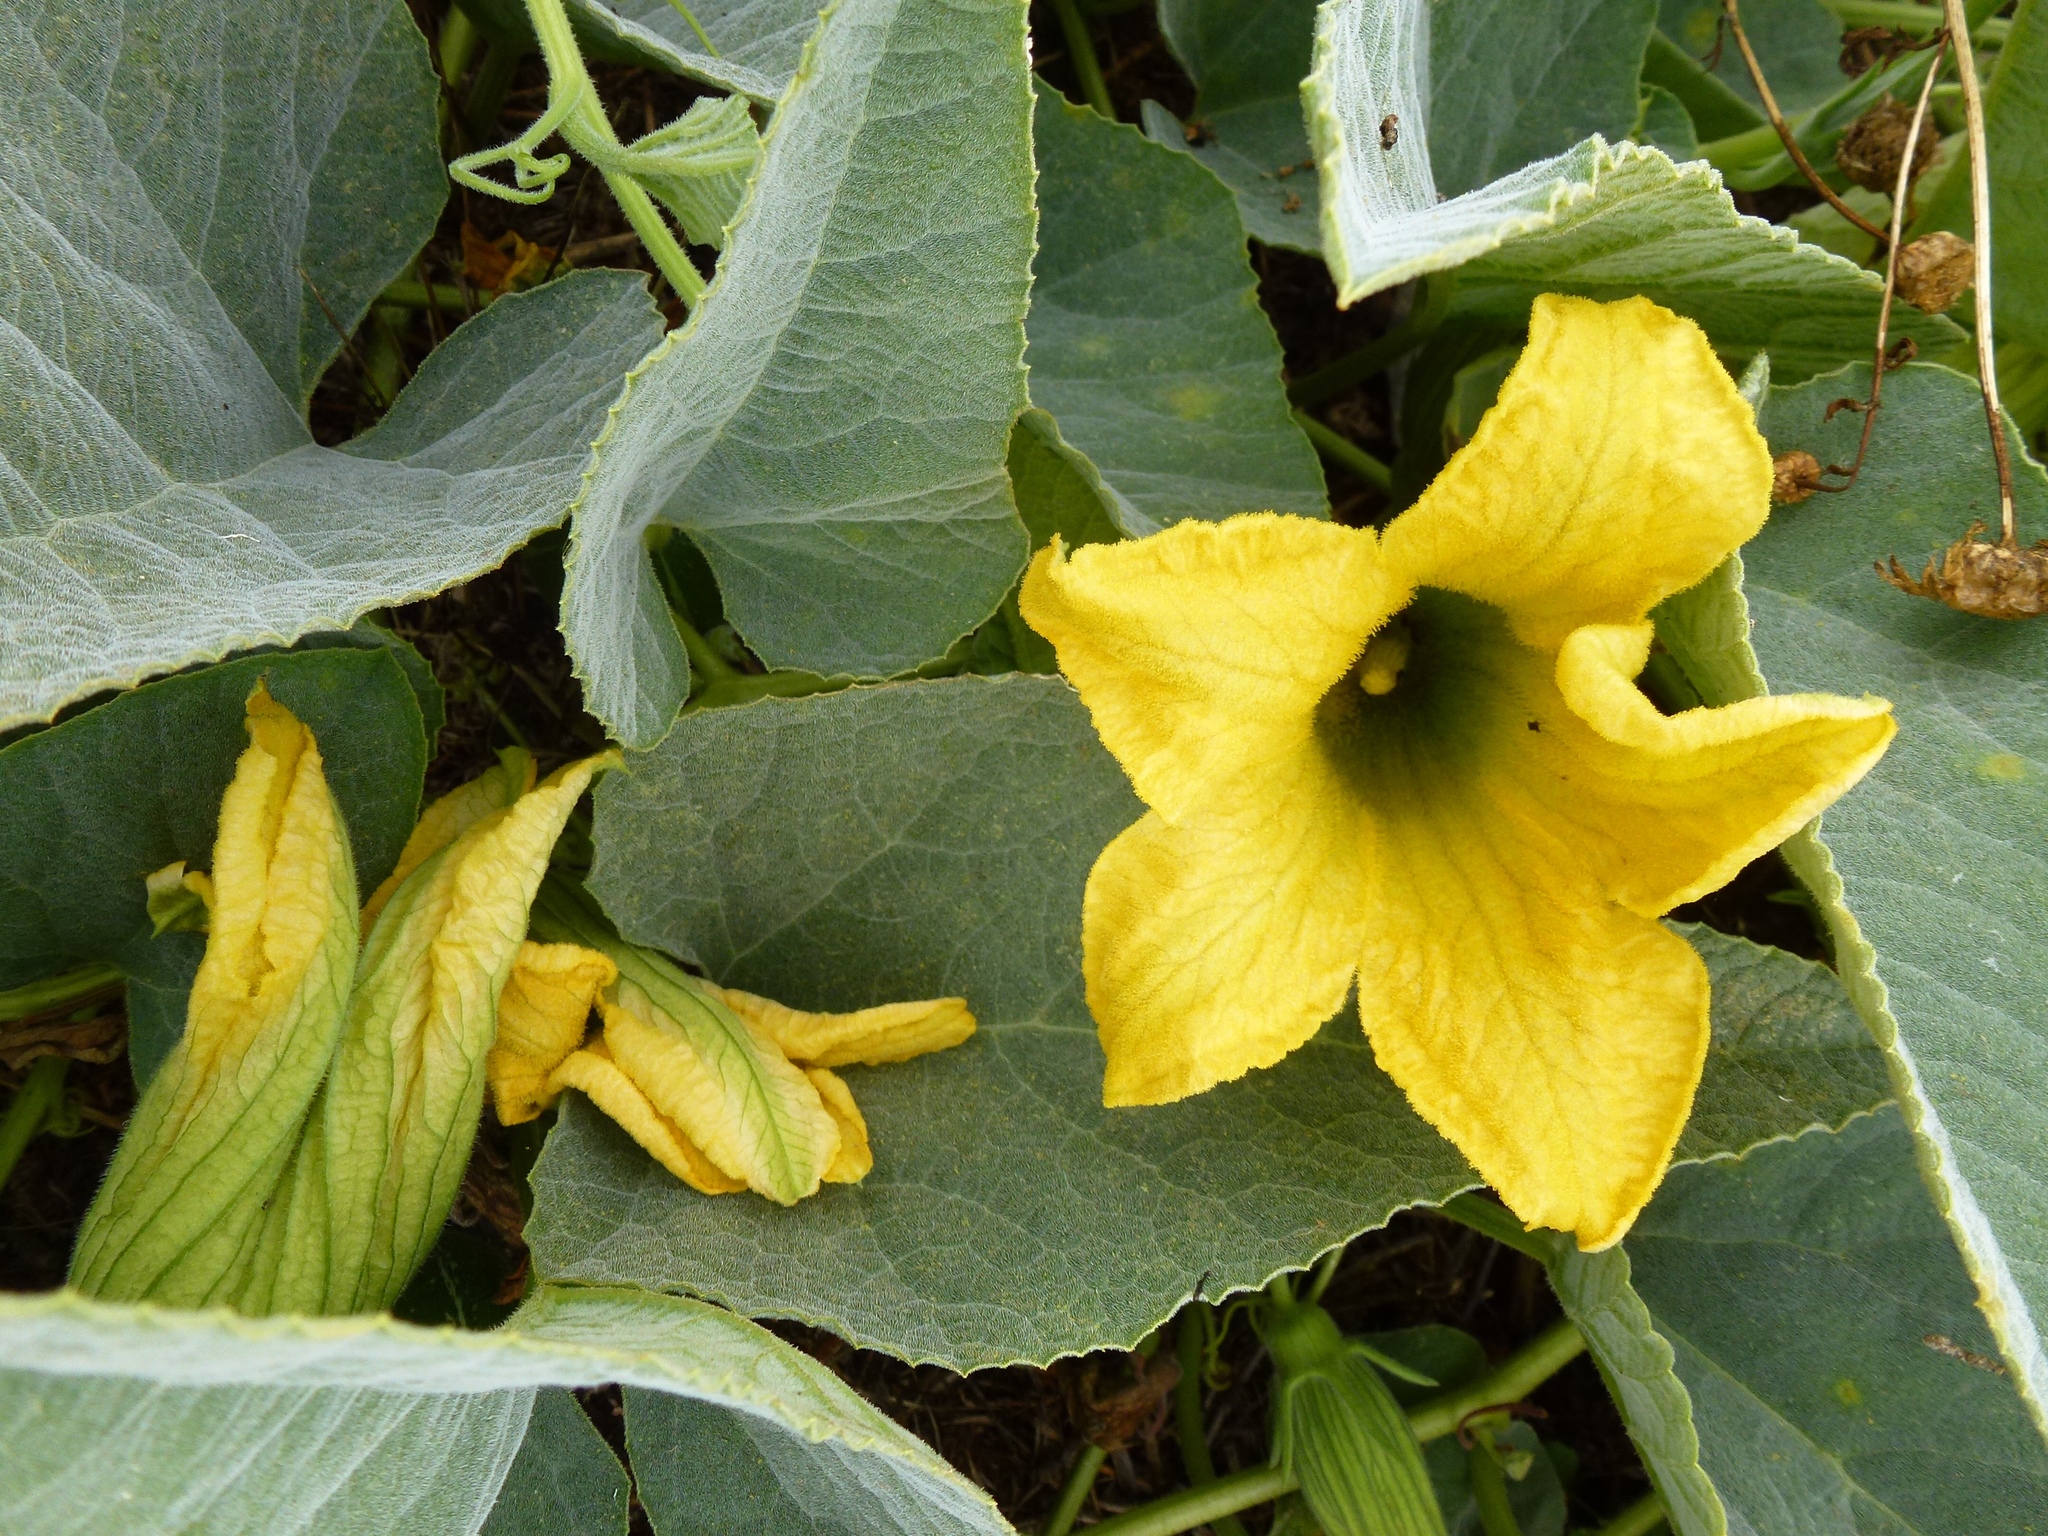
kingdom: Plantae
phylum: Tracheophyta
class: Magnoliopsida
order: Cucurbitales
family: Cucurbitaceae
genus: Cucurbita
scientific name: Cucurbita foetidissima
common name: Buffalo gourd
